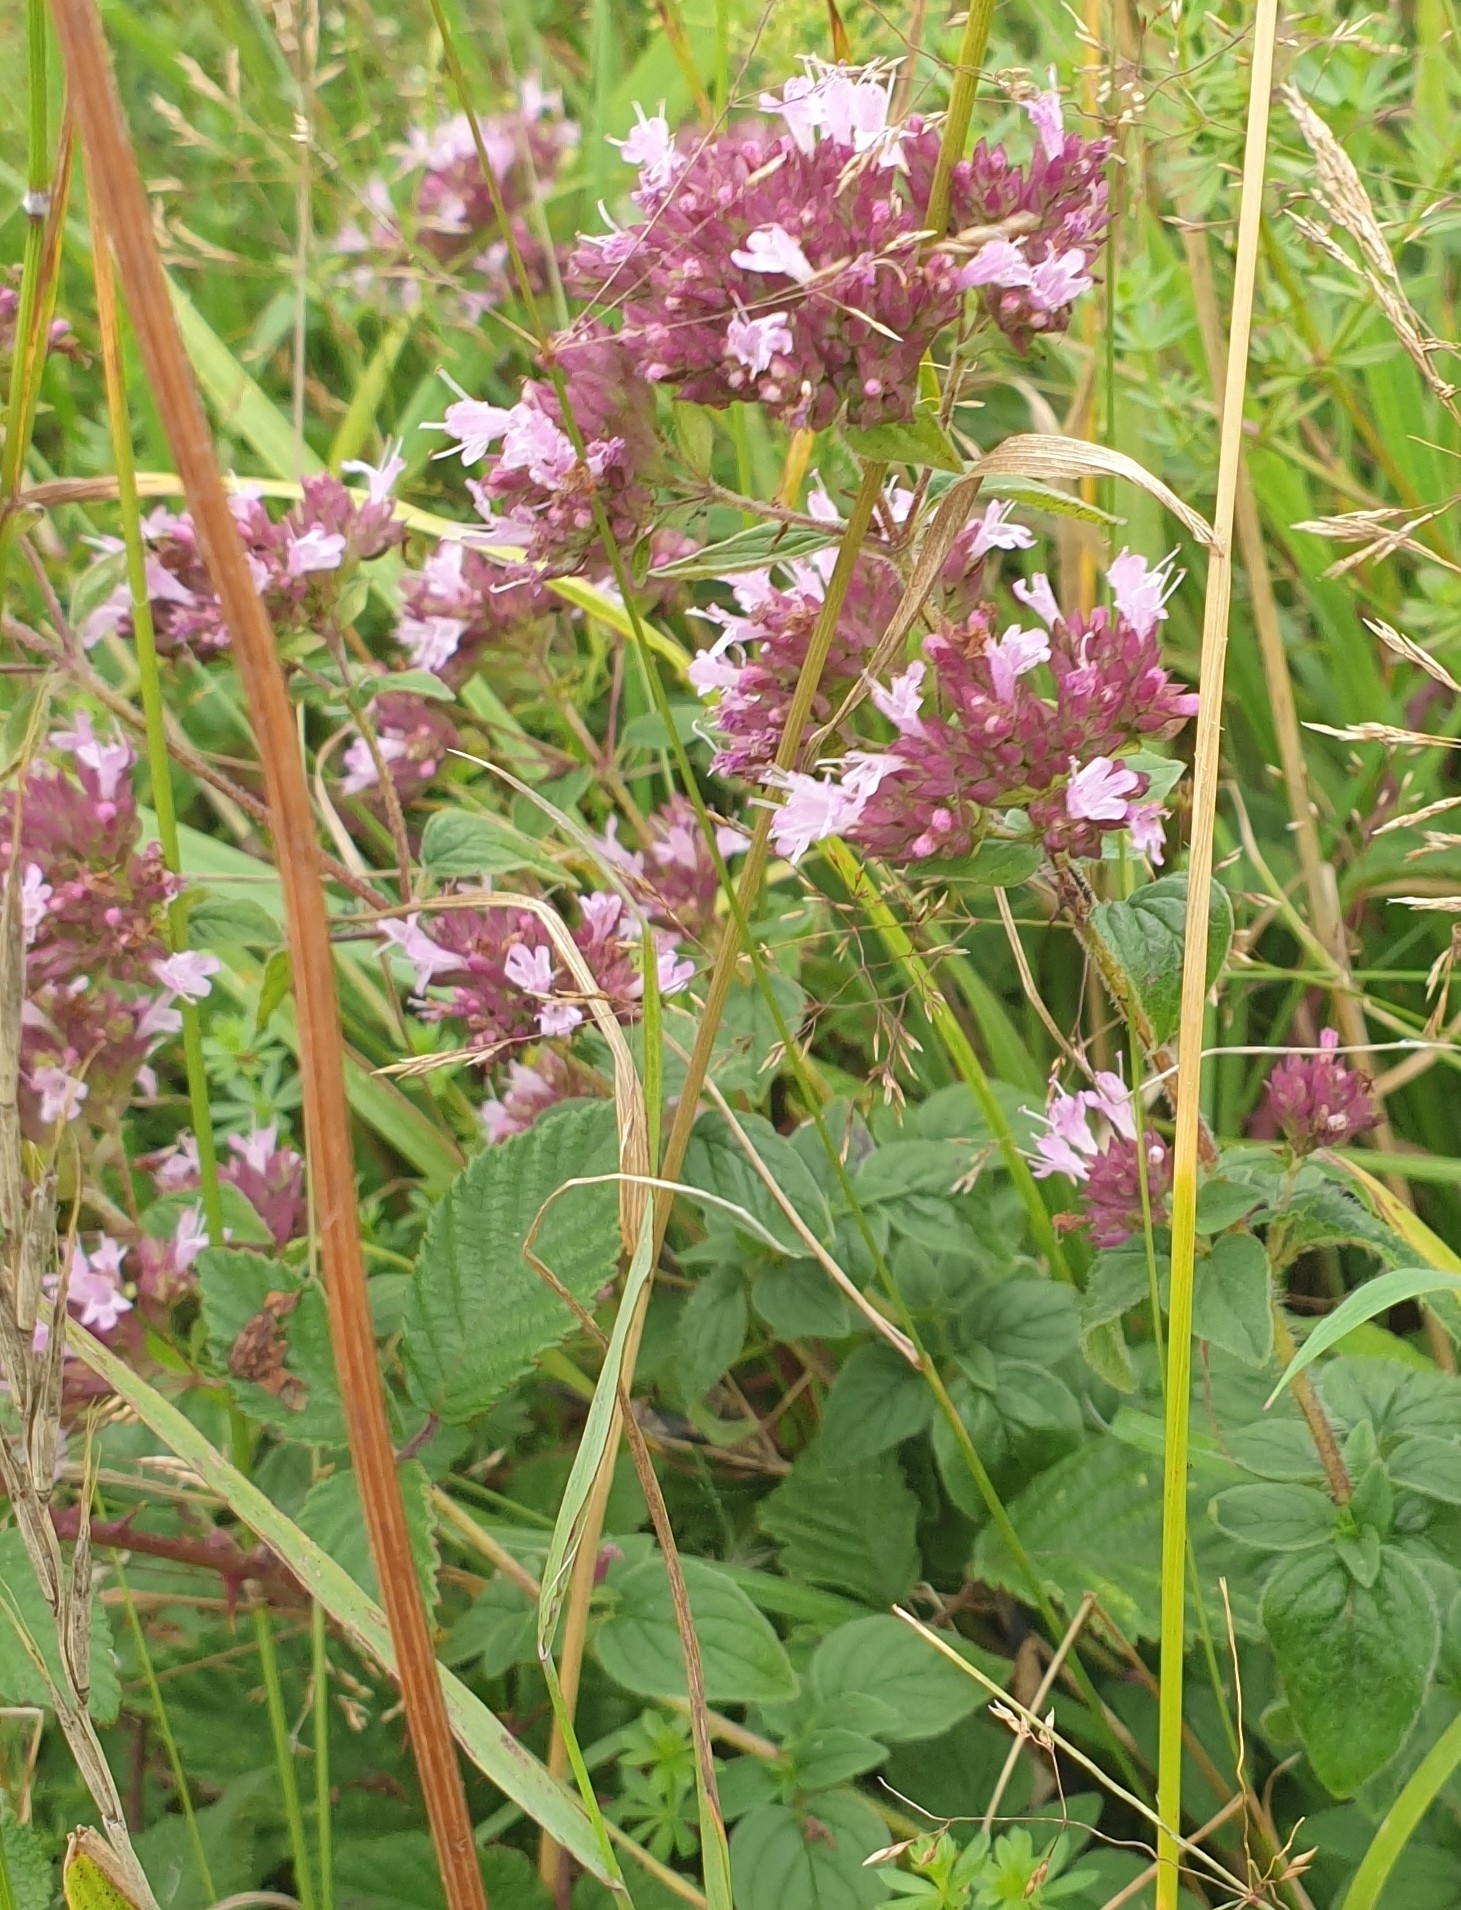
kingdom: Plantae
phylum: Tracheophyta
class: Magnoliopsida
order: Lamiales
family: Lamiaceae
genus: Origanum
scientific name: Origanum vulgare
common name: Wild marjoram
